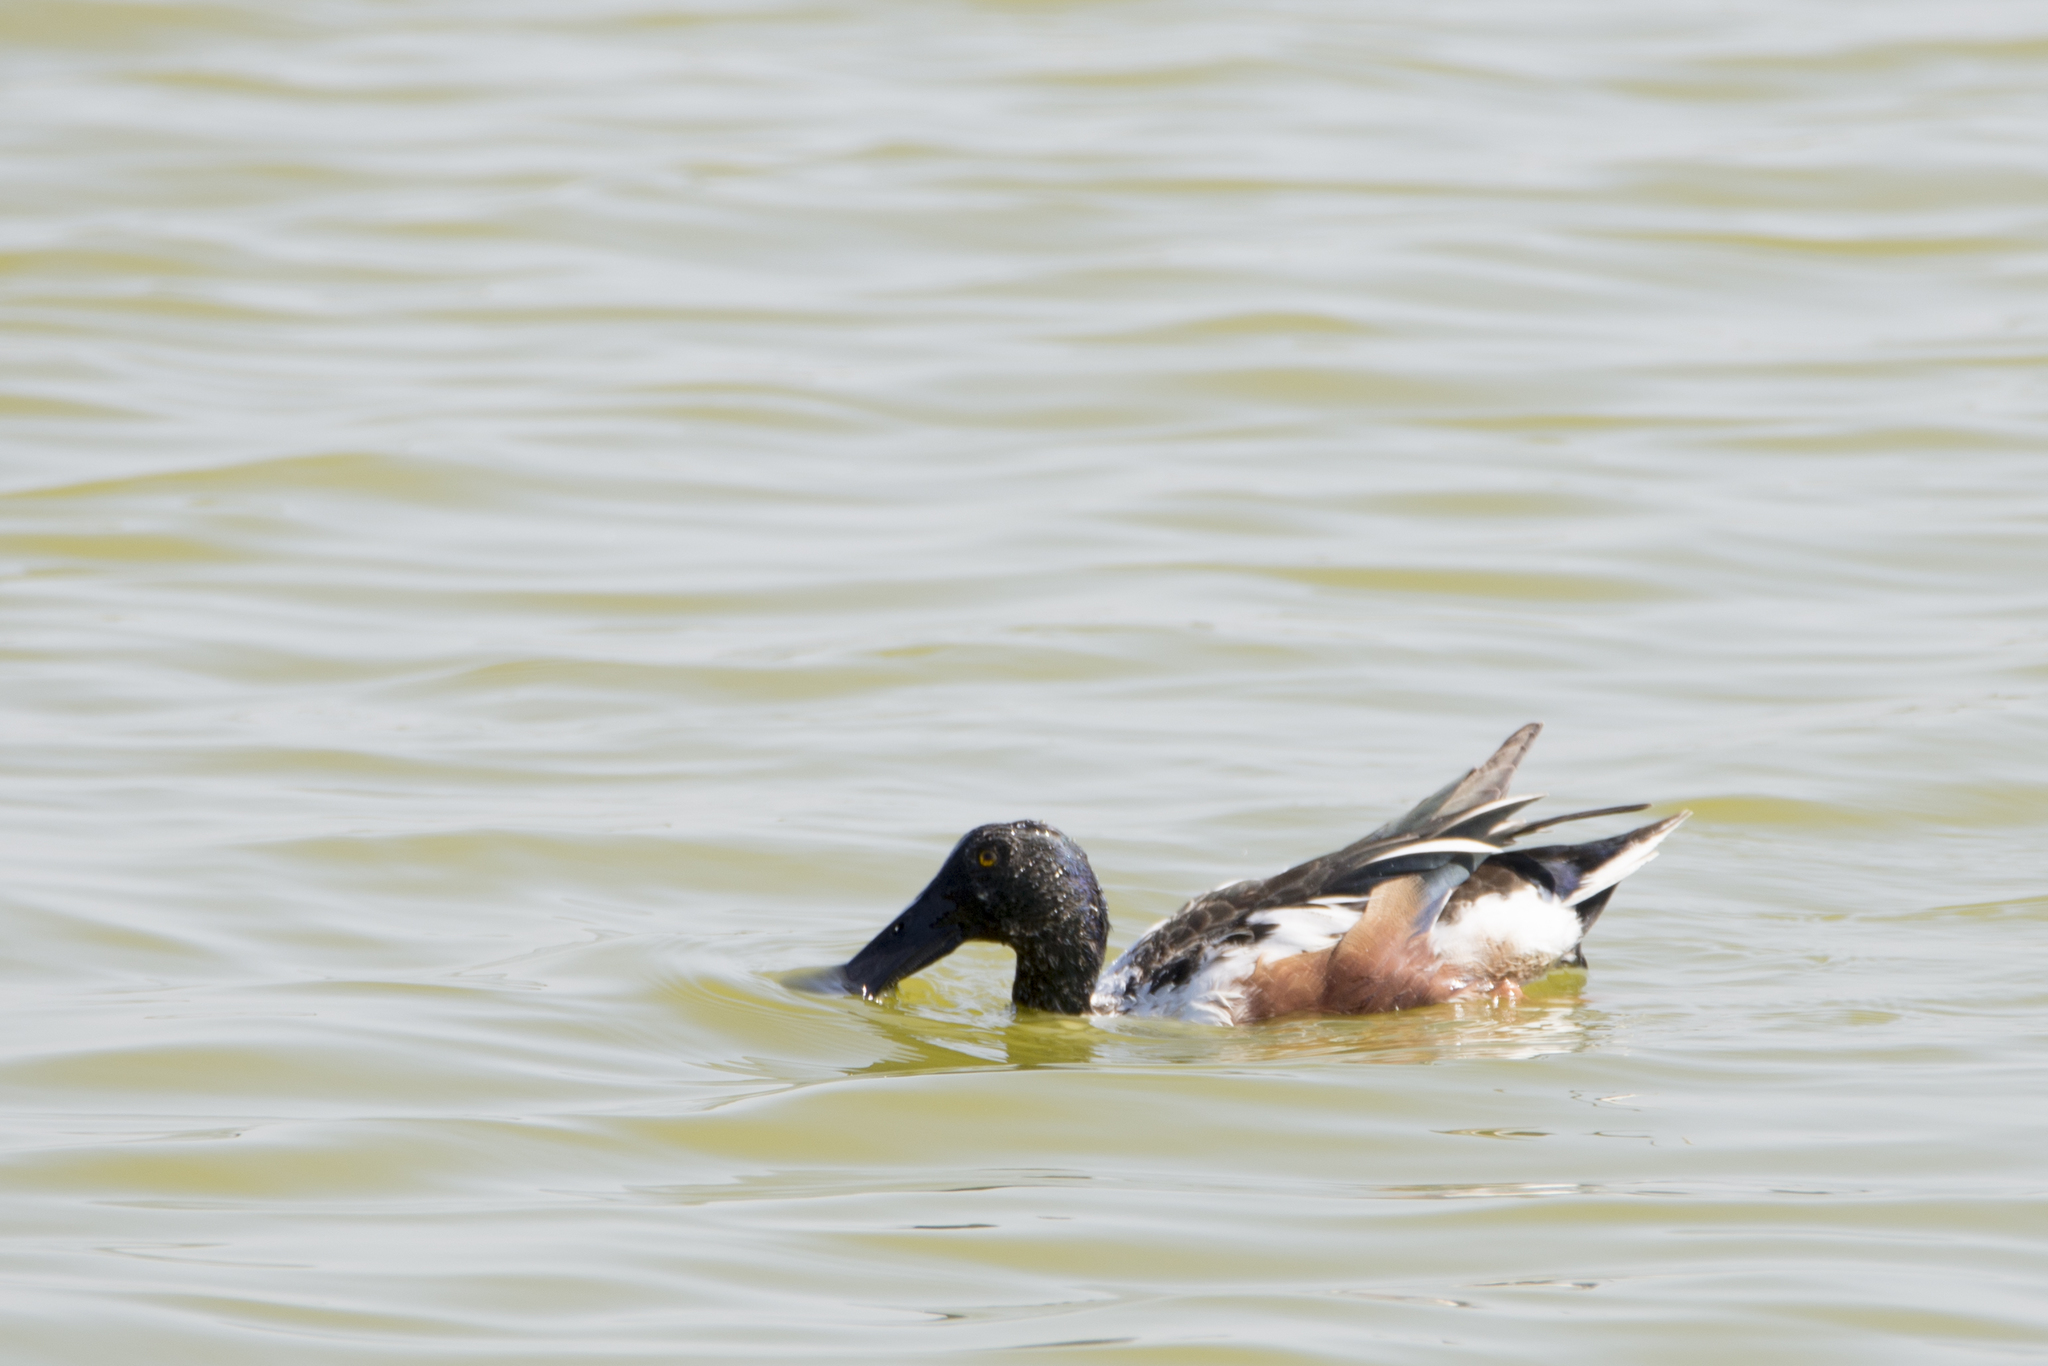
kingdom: Animalia
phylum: Chordata
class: Aves
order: Anseriformes
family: Anatidae
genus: Spatula
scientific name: Spatula clypeata
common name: Northern shoveler
